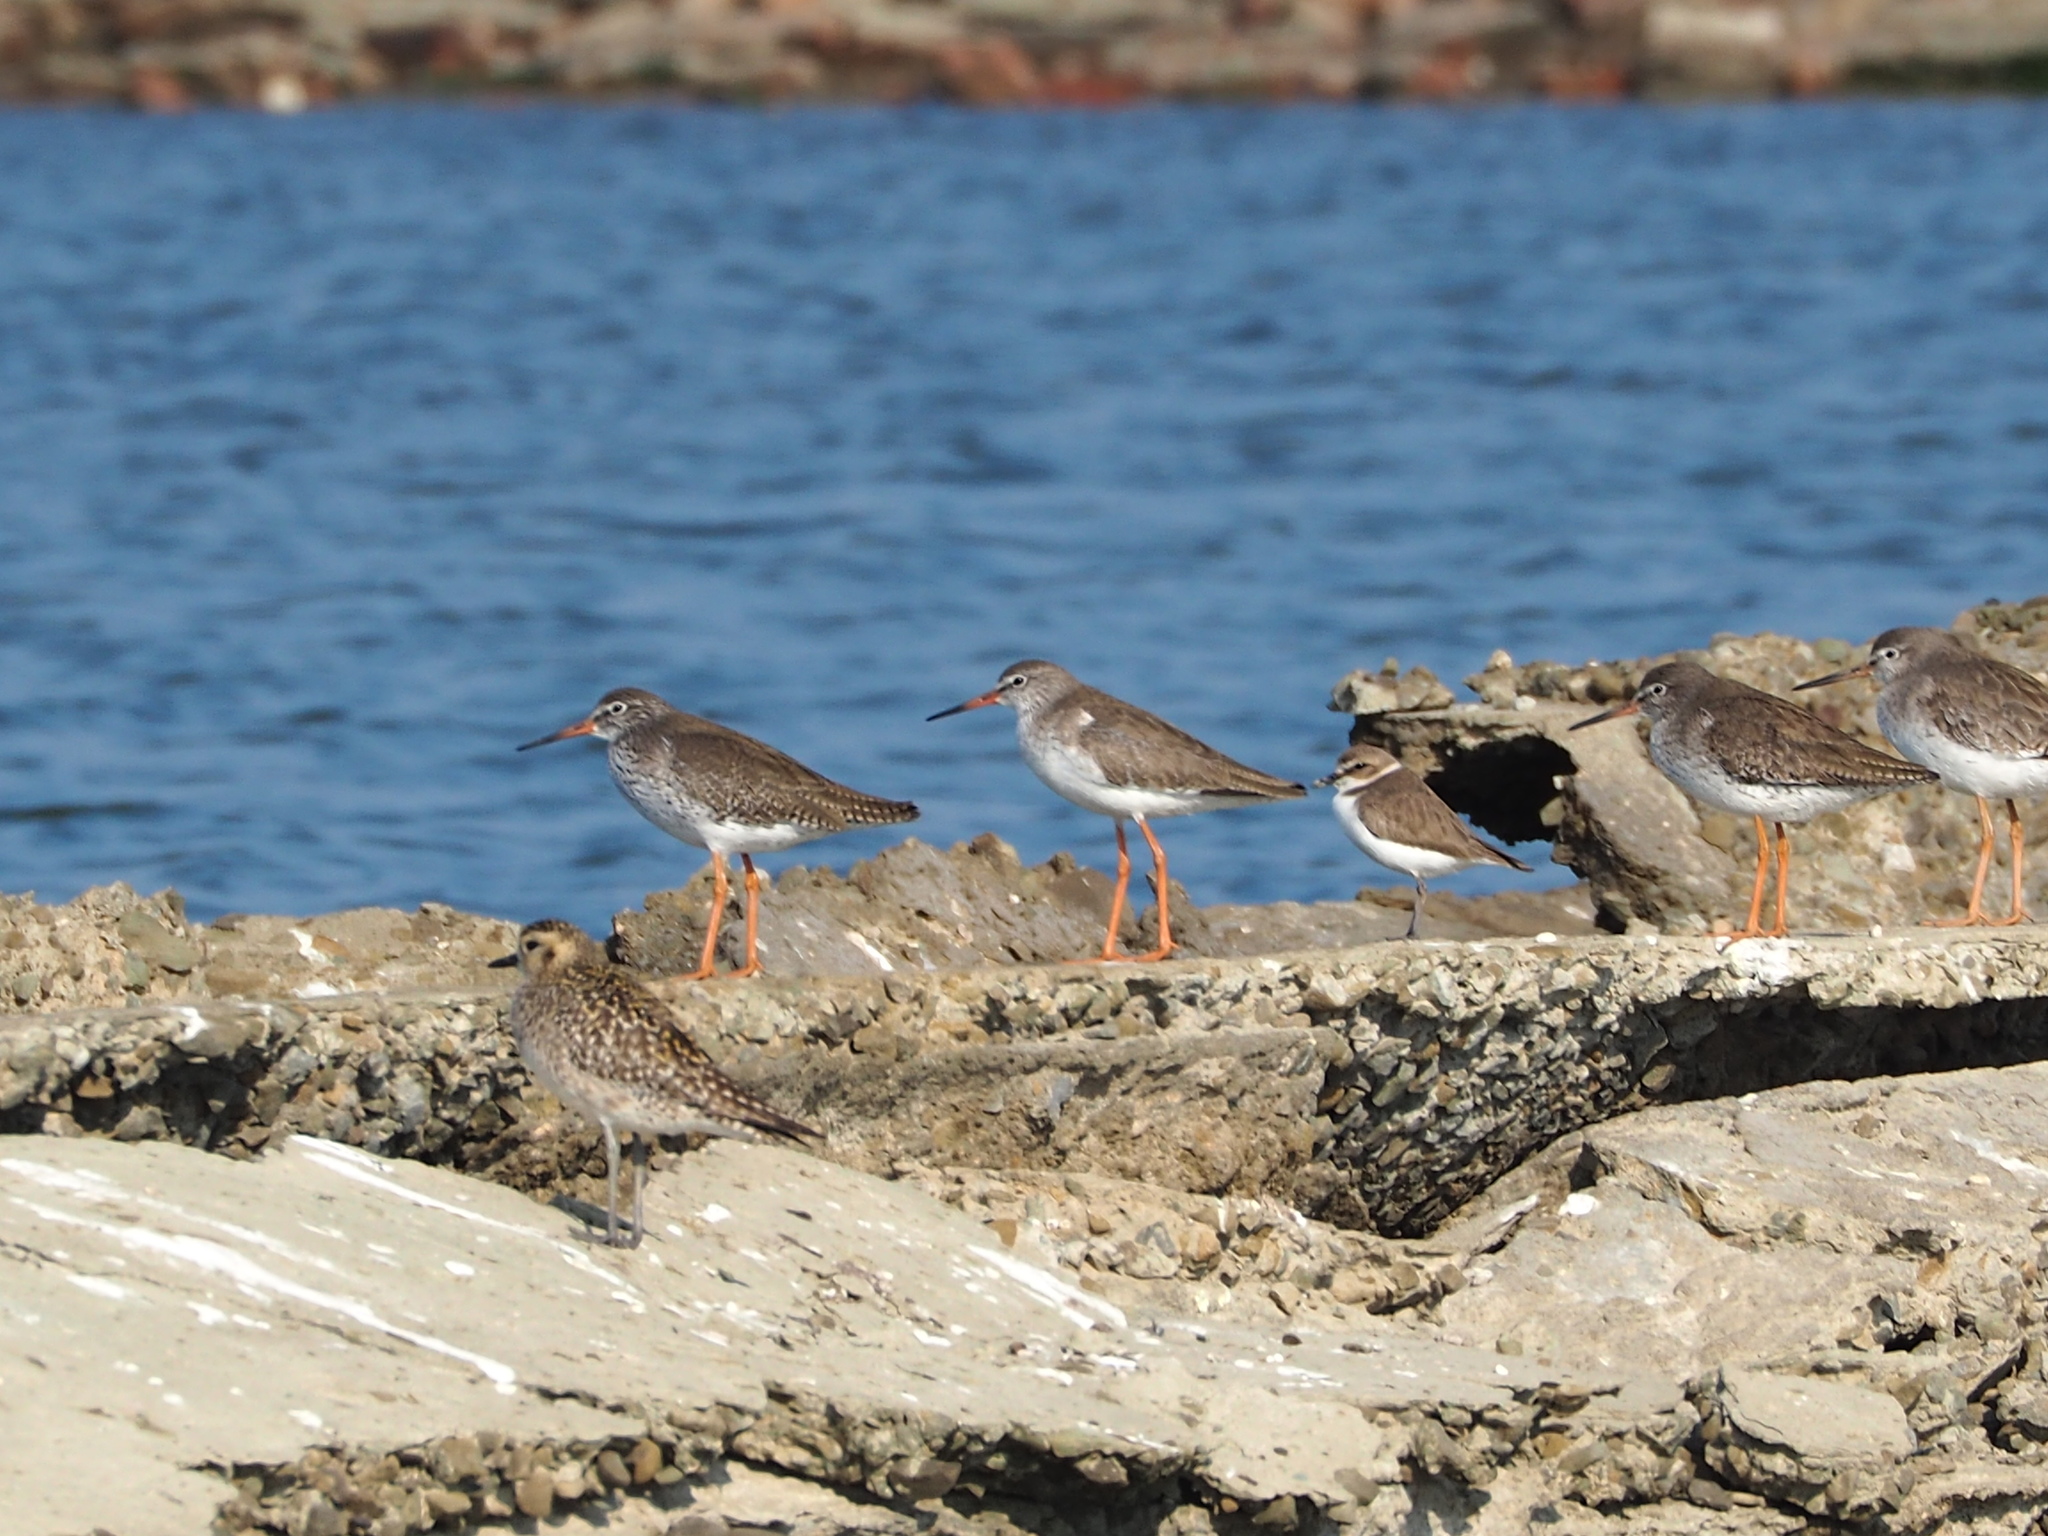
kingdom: Animalia
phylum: Chordata
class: Aves
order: Charadriiformes
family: Scolopacidae
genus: Tringa
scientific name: Tringa totanus
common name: Common redshank
